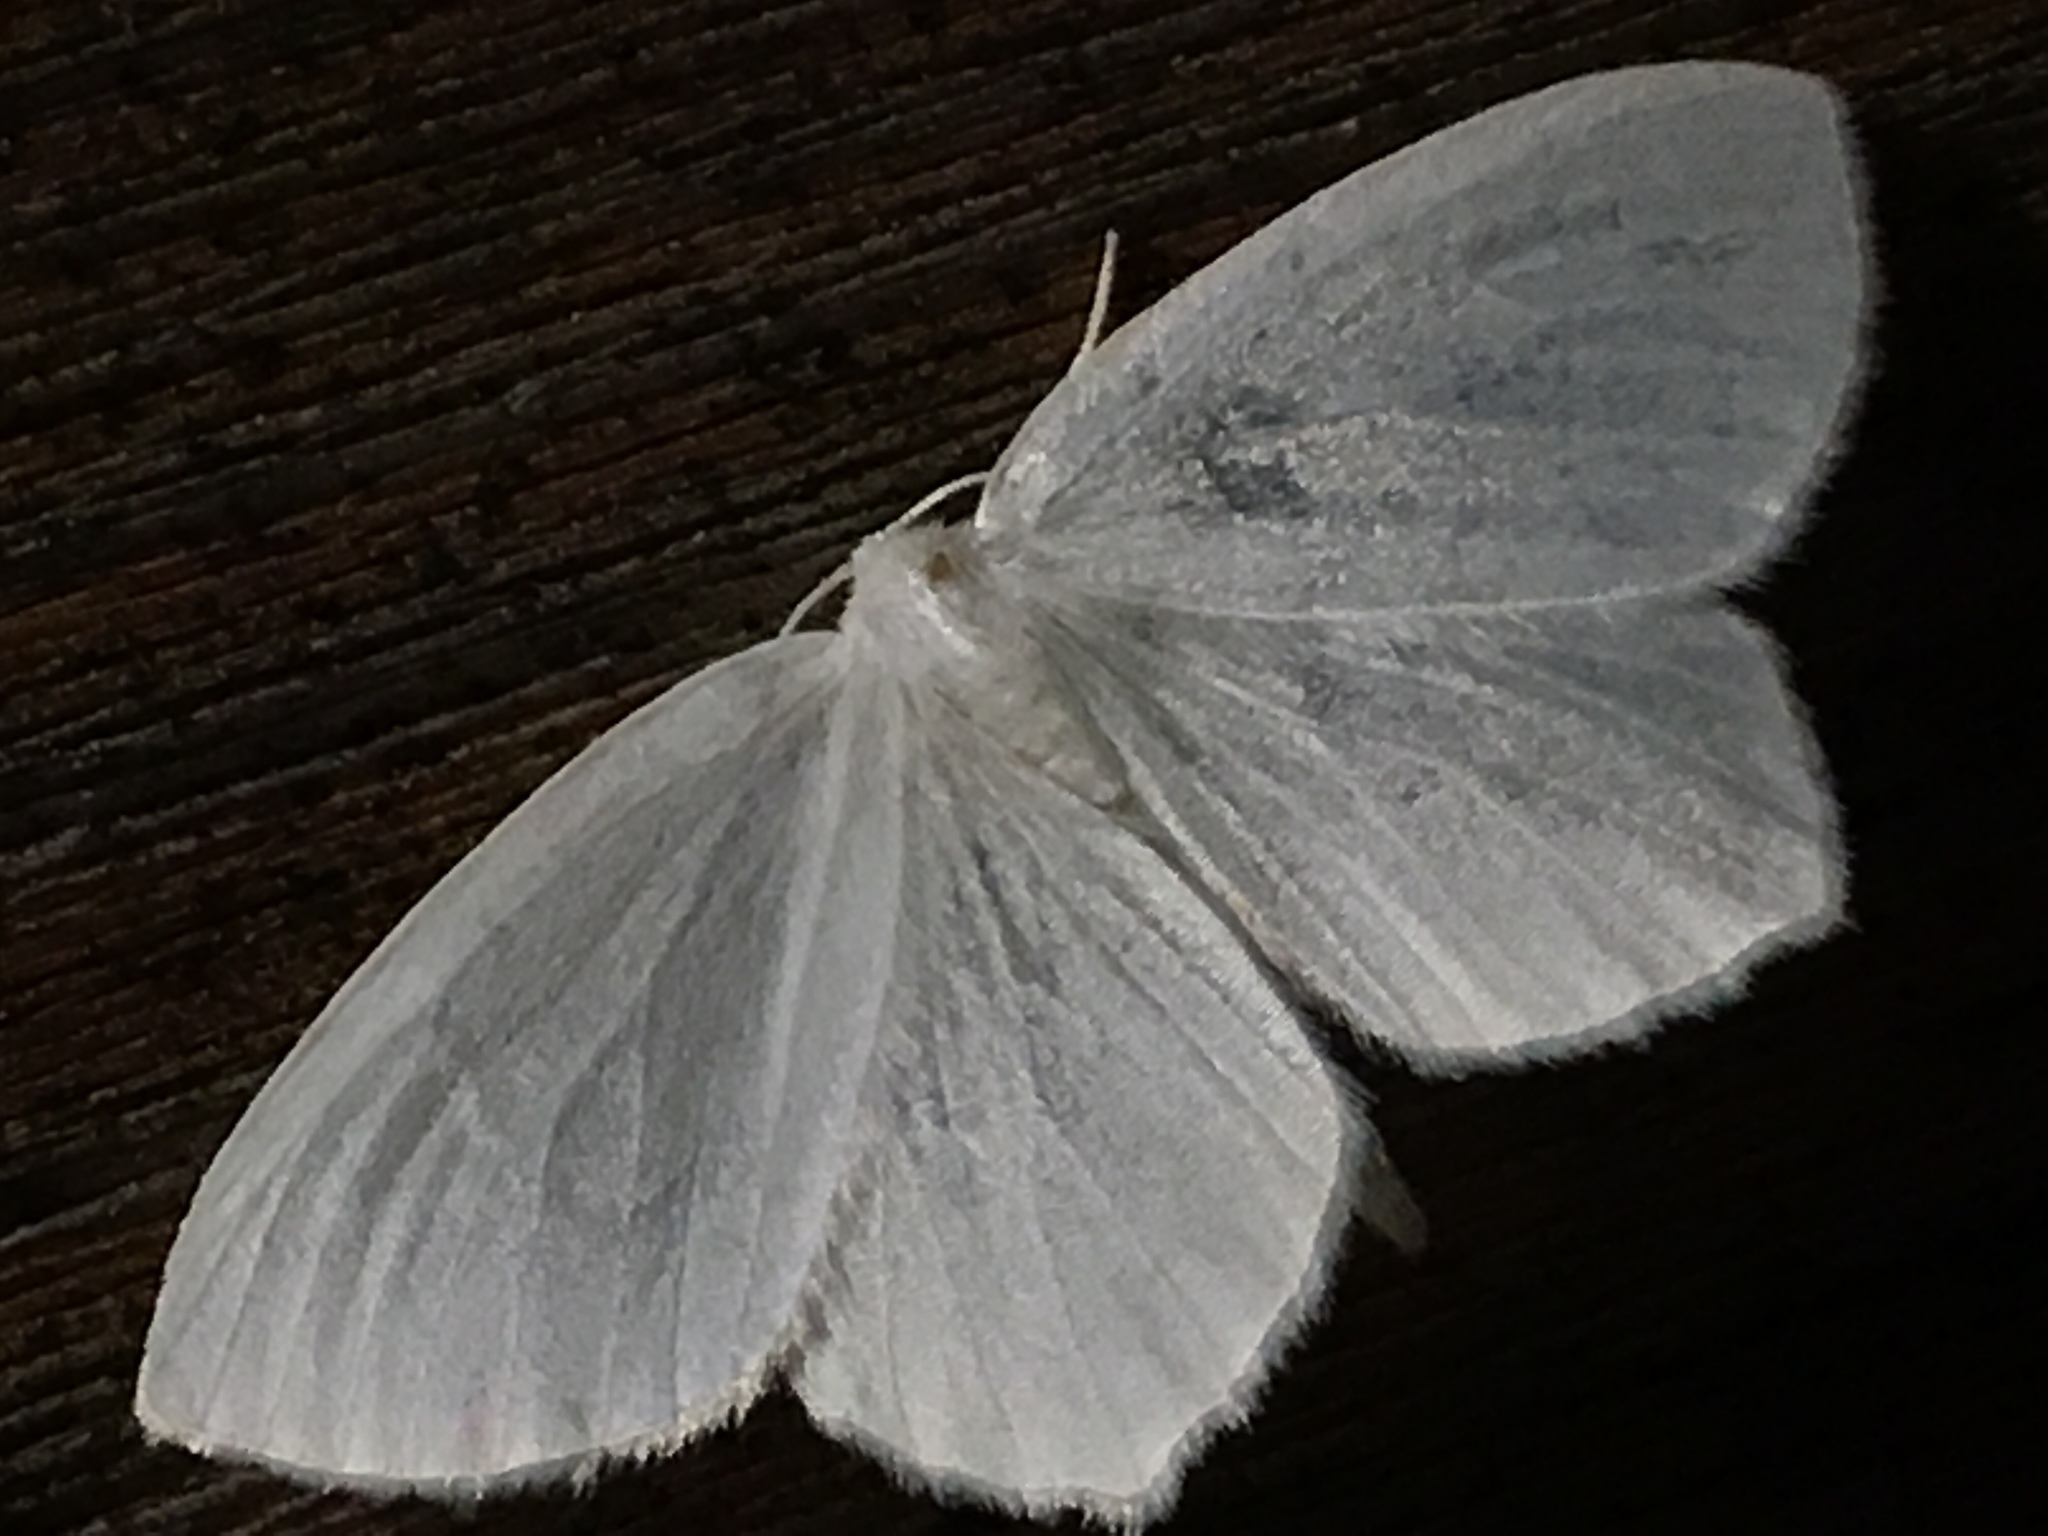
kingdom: Animalia
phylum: Arthropoda
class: Insecta
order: Lepidoptera
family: Geometridae
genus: Eugonobapta
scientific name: Eugonobapta nivosaria
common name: Snowy geometer
